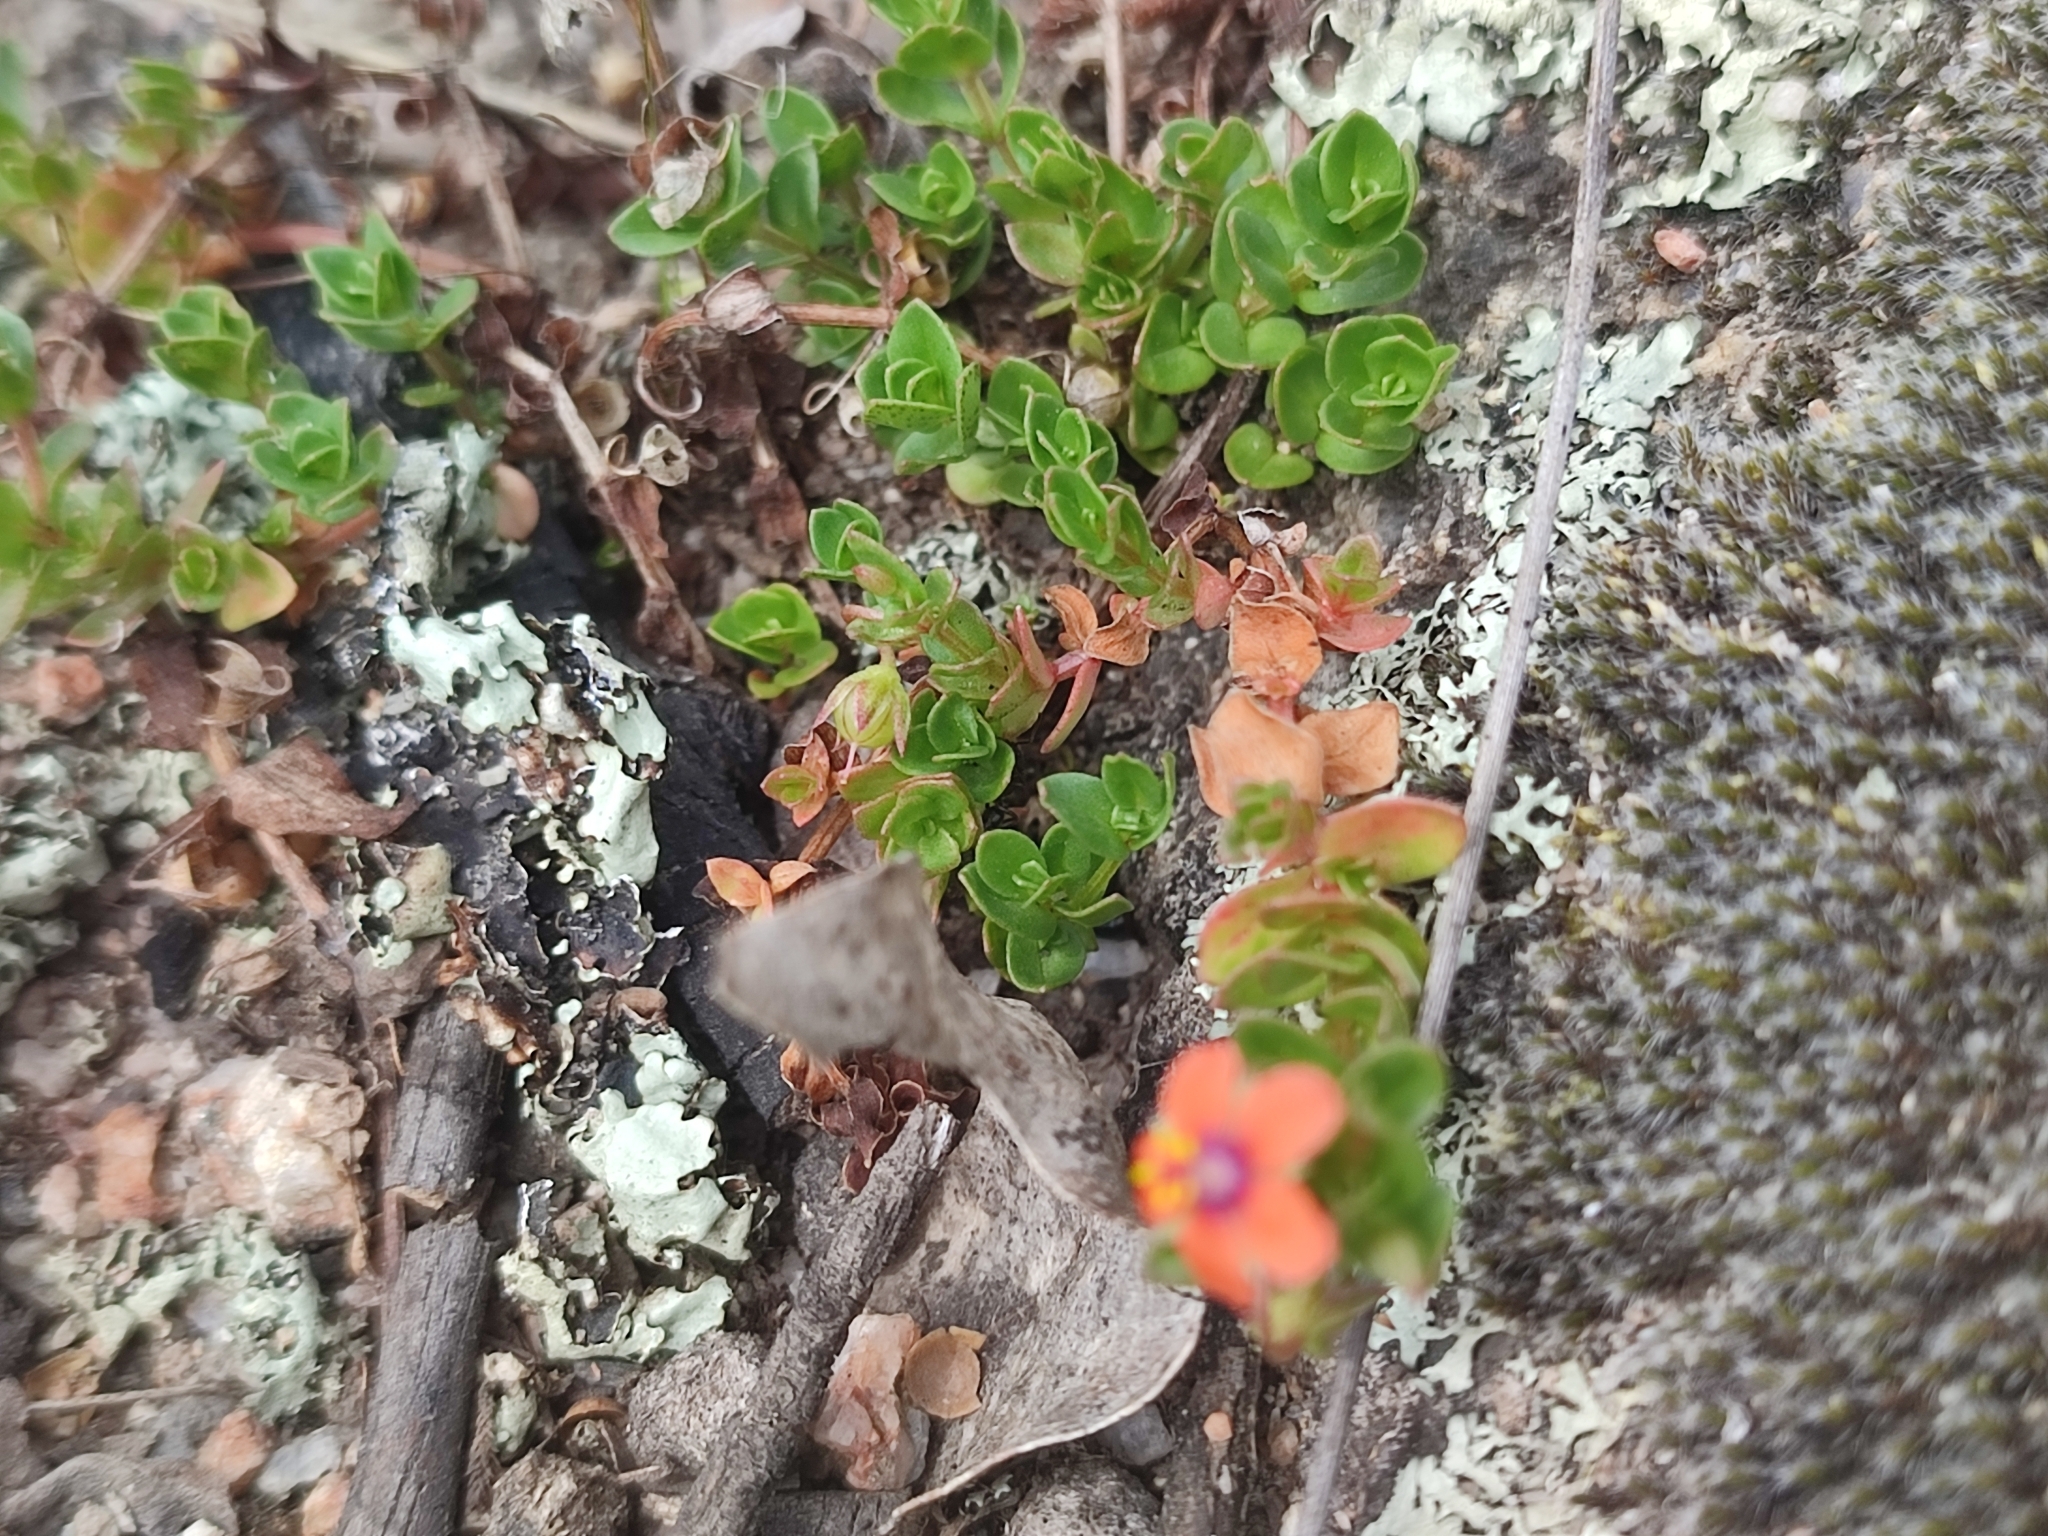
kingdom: Plantae
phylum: Tracheophyta
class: Magnoliopsida
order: Ericales
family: Primulaceae
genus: Lysimachia
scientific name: Lysimachia arvensis
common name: Scarlet pimpernel
